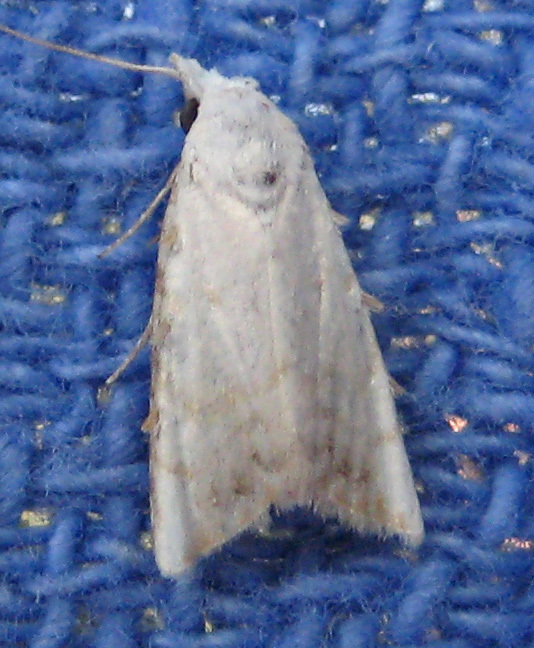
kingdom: Animalia
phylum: Arthropoda
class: Insecta
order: Lepidoptera
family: Nolidae
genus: Nola
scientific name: Nola cereella
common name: Sorghum webworm moth
